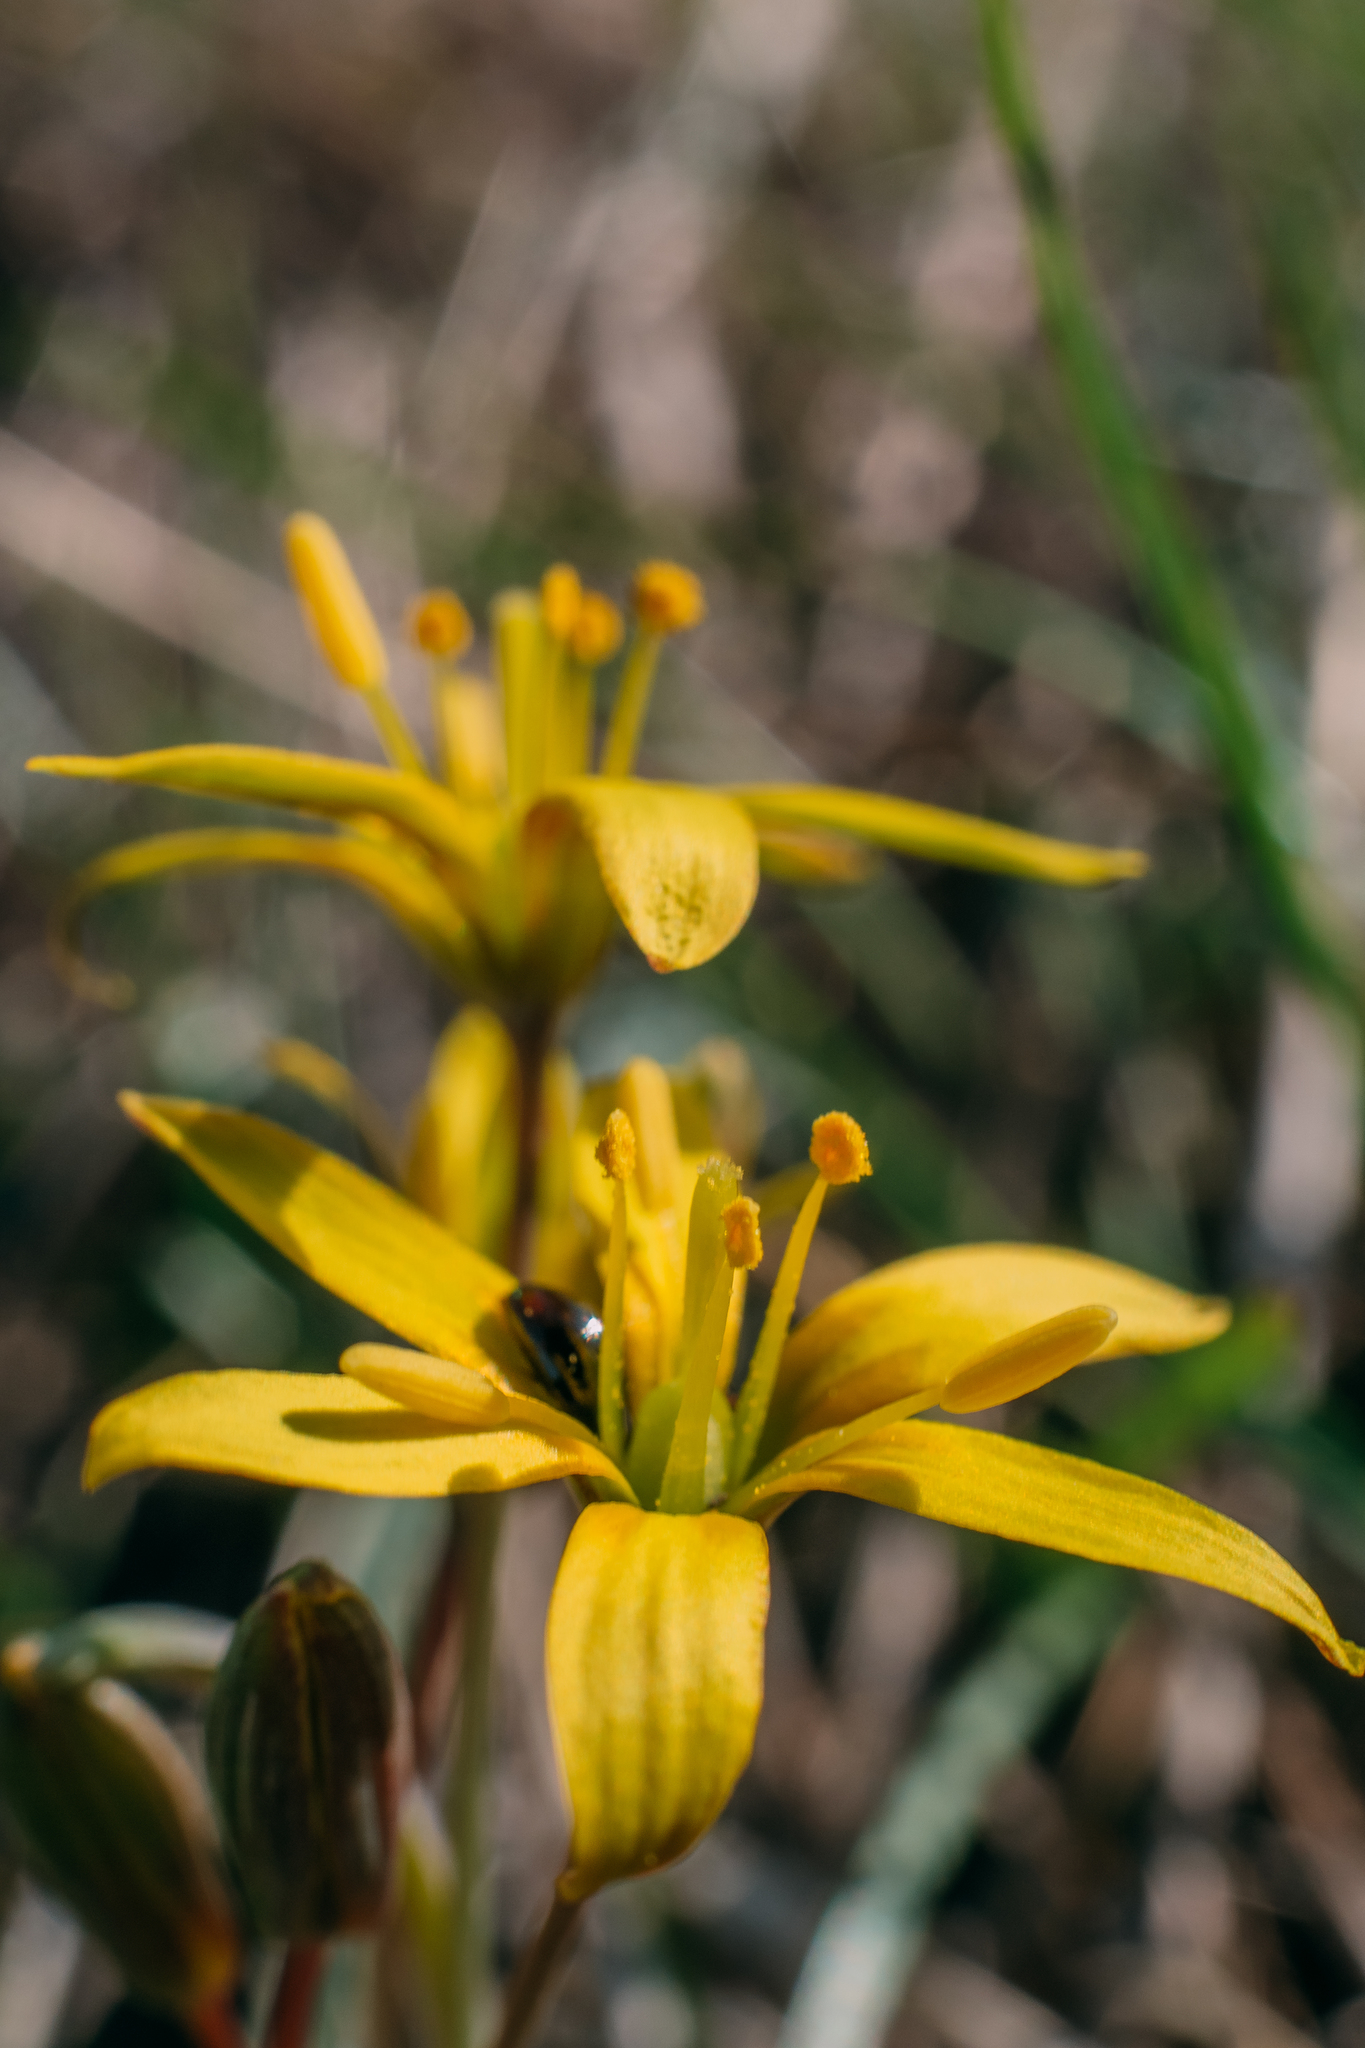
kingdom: Plantae
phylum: Tracheophyta
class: Liliopsida
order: Liliales
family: Liliaceae
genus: Gagea
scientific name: Gagea fragifera
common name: Lily
